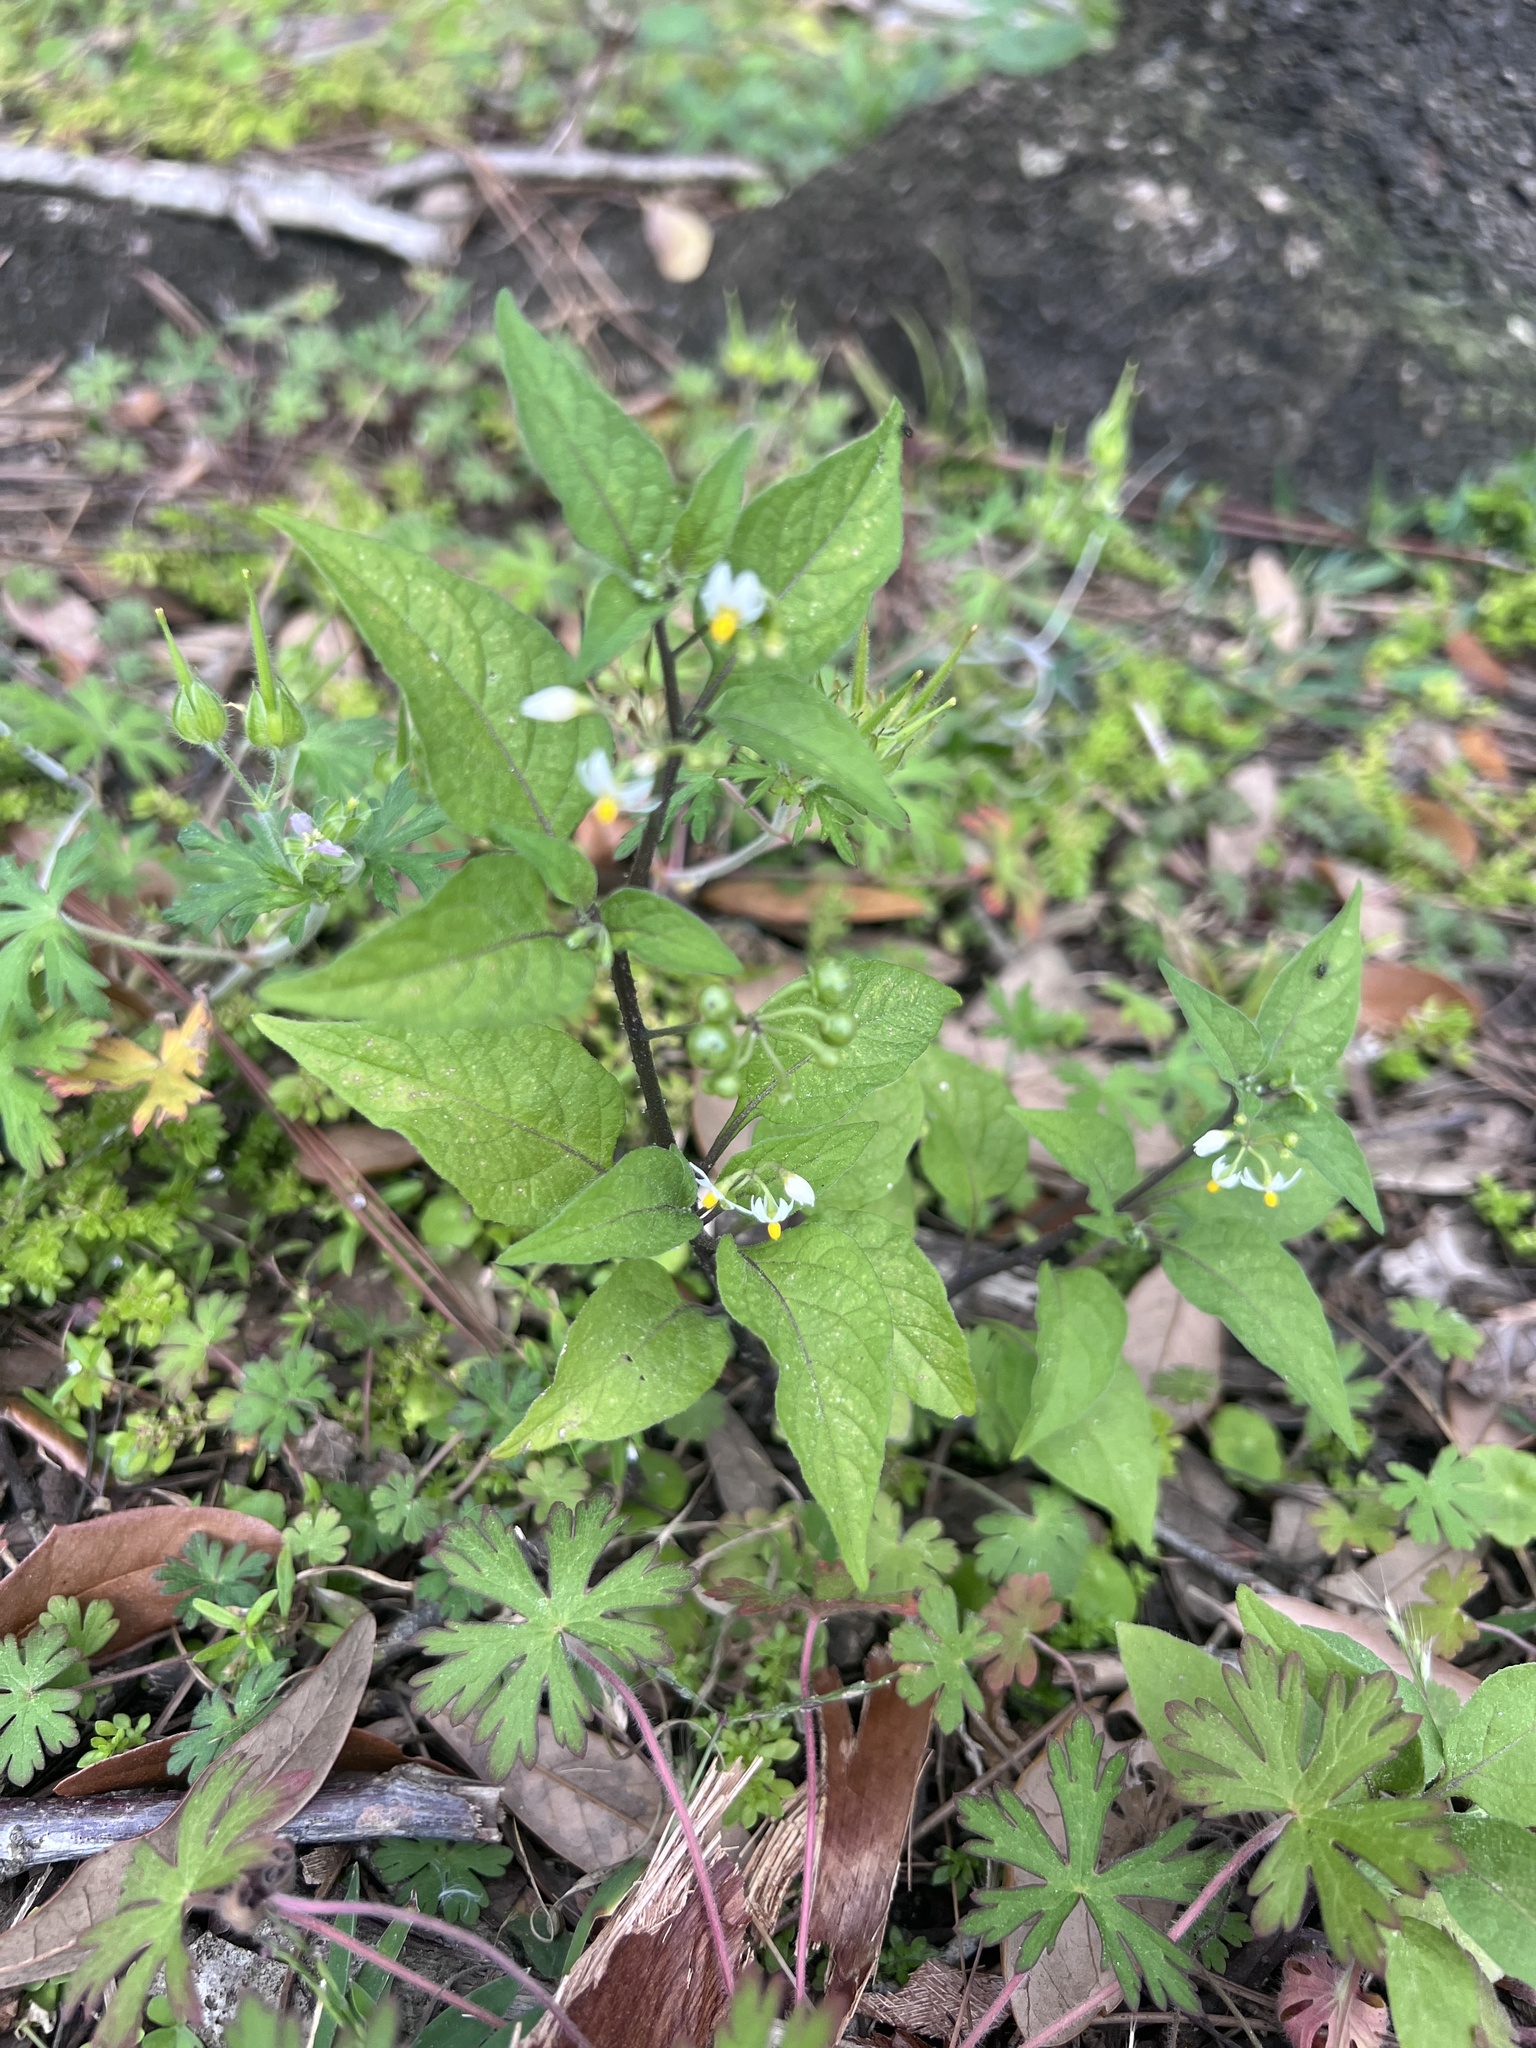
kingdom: Plantae
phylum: Tracheophyta
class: Magnoliopsida
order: Solanales
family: Solanaceae
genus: Solanum
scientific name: Solanum americanum
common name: American black nightshade
